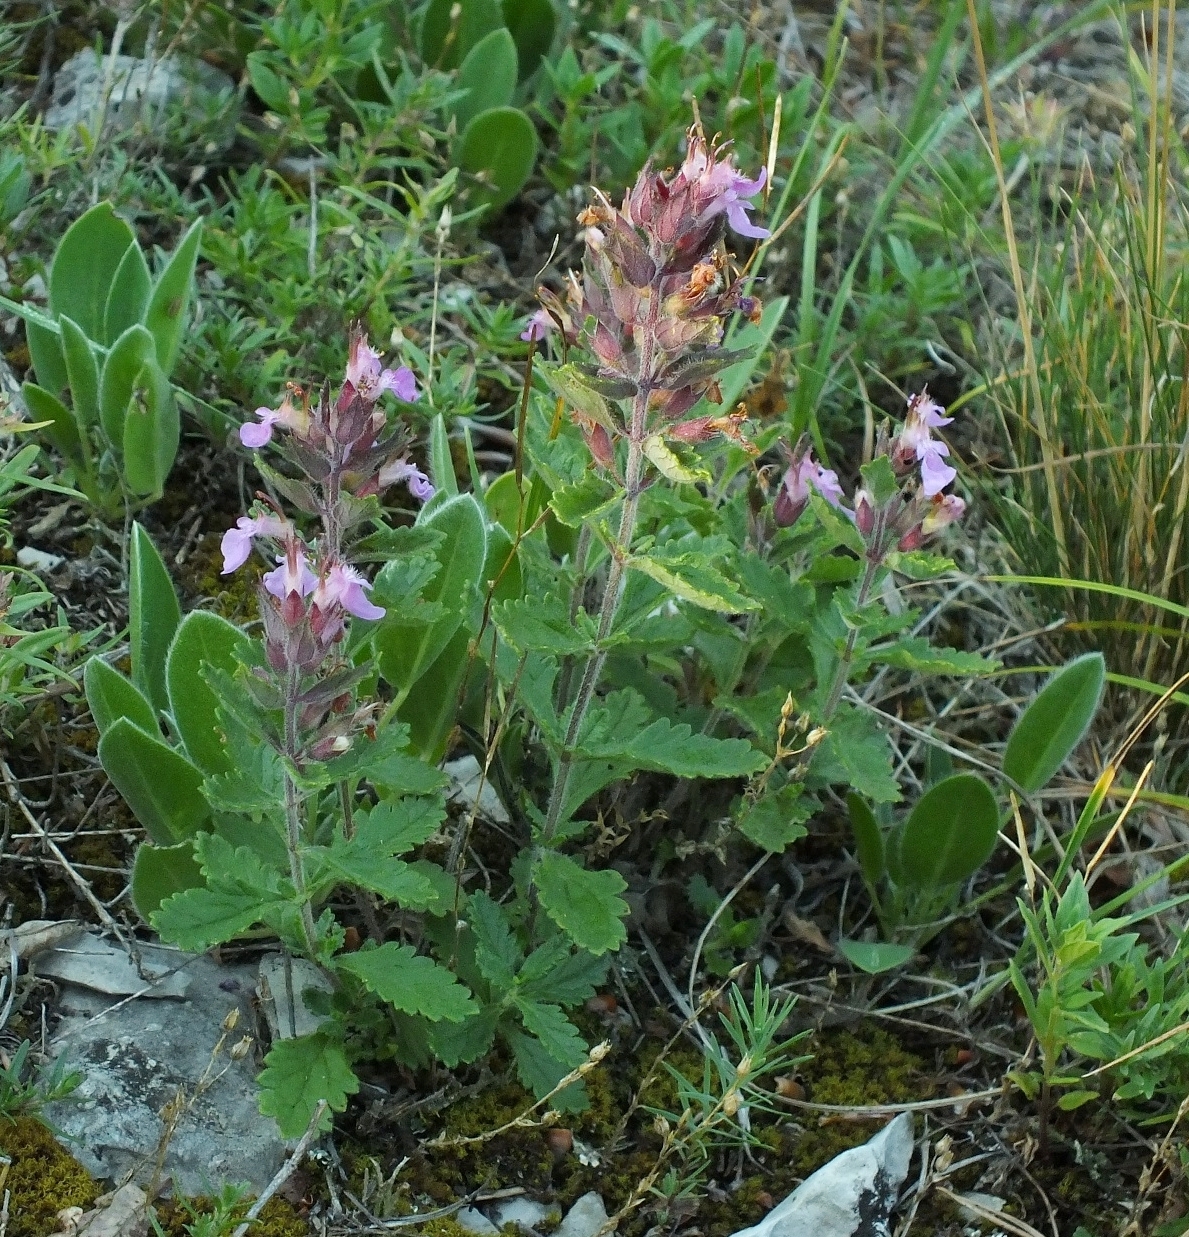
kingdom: Plantae
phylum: Tracheophyta
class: Magnoliopsida
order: Lamiales
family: Lamiaceae
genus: Teucrium
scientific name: Teucrium chamaedrys
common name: Wall germander
